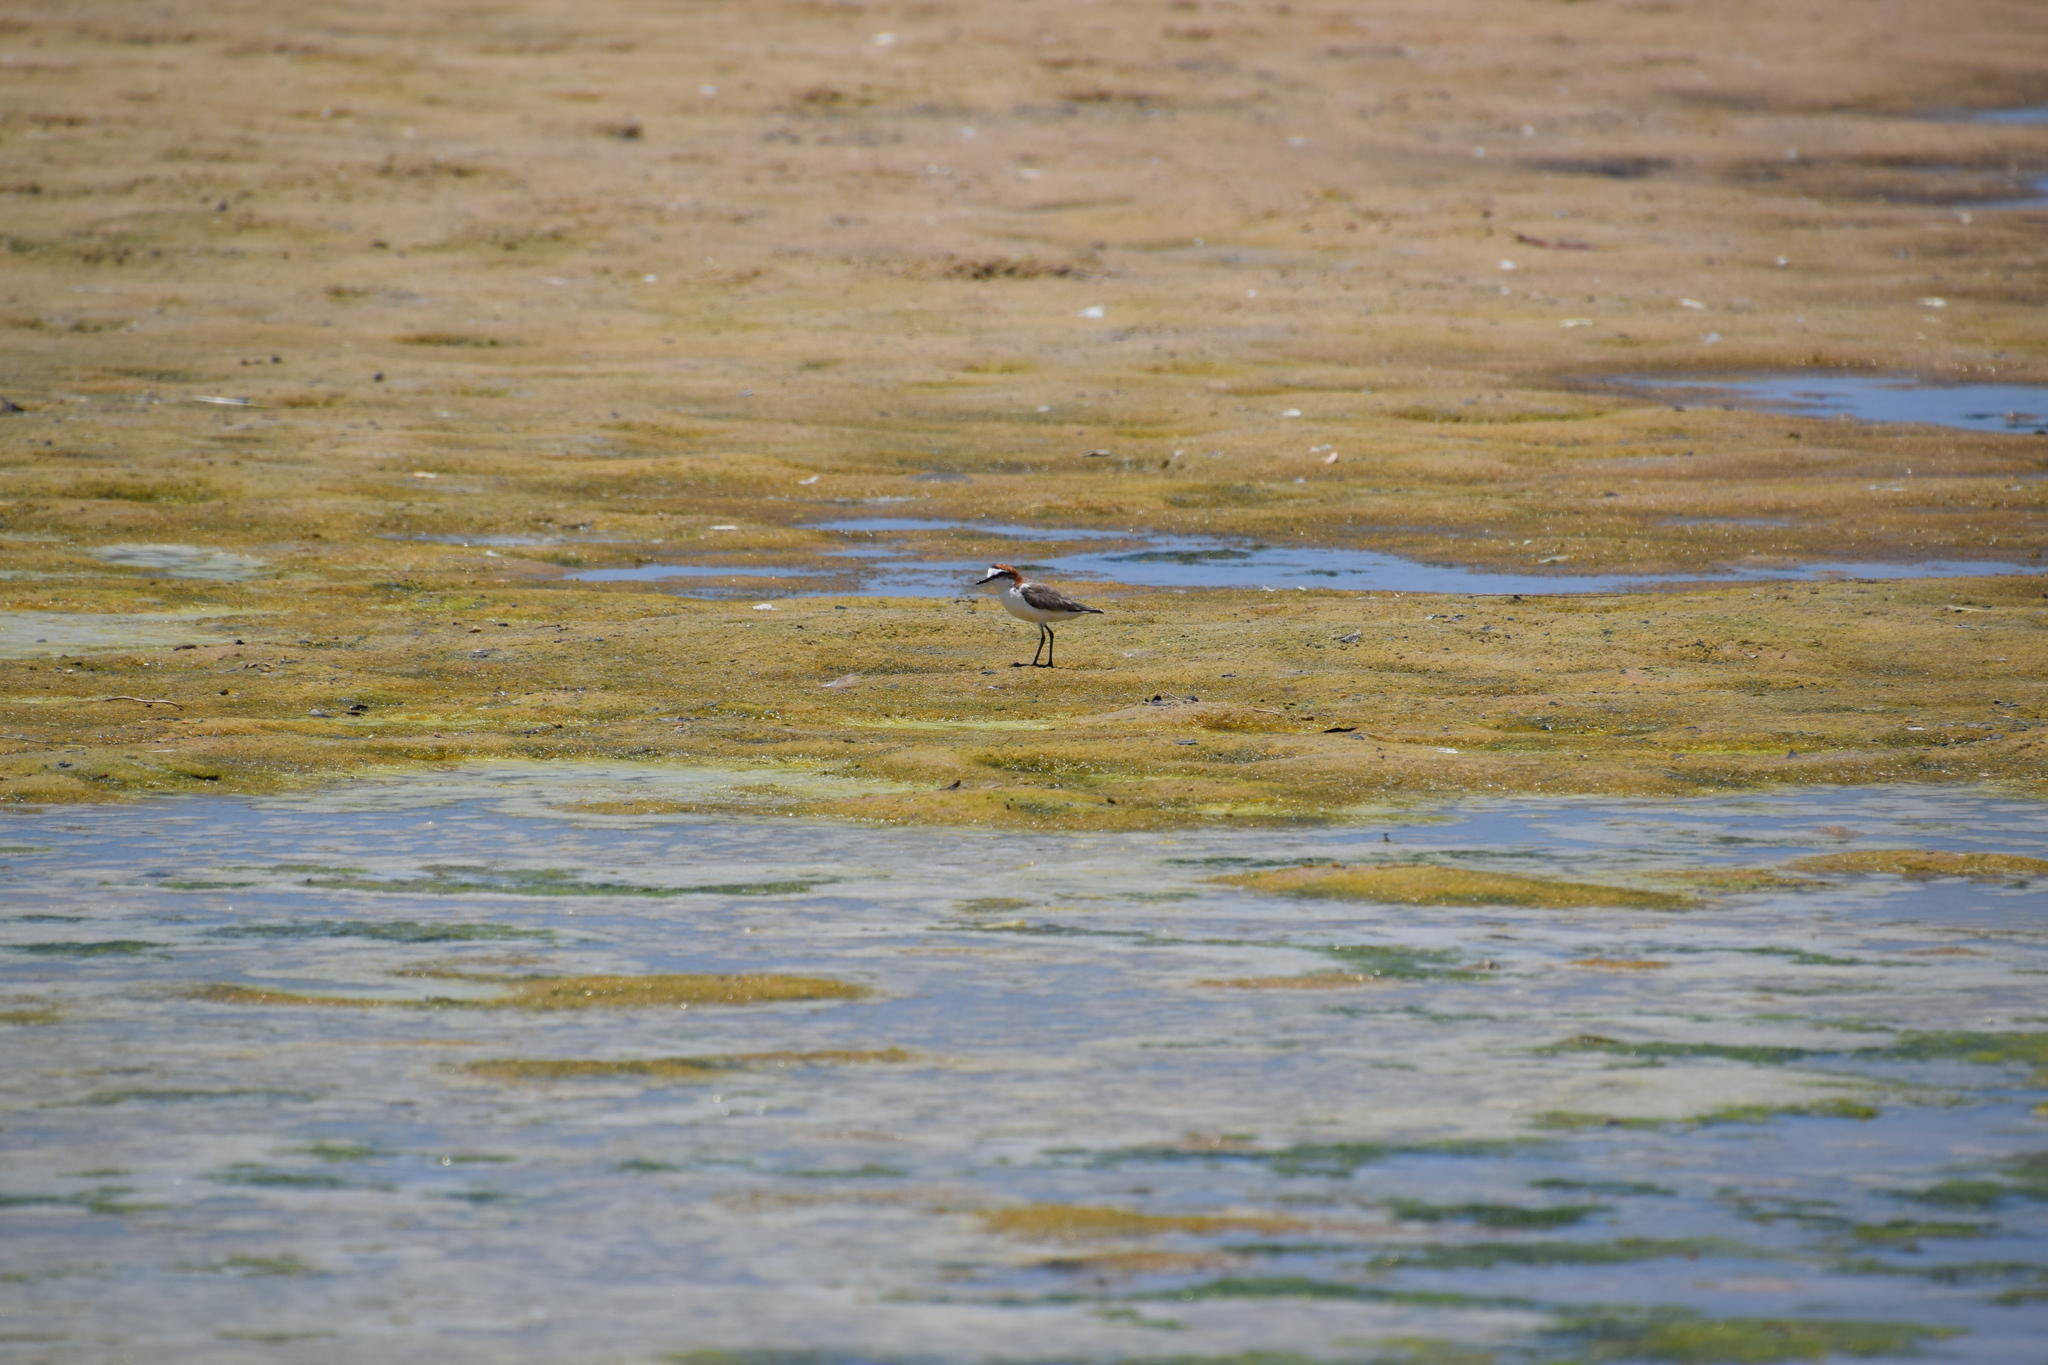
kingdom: Animalia
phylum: Chordata
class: Aves
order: Charadriiformes
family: Charadriidae
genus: Anarhynchus
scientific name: Anarhynchus
